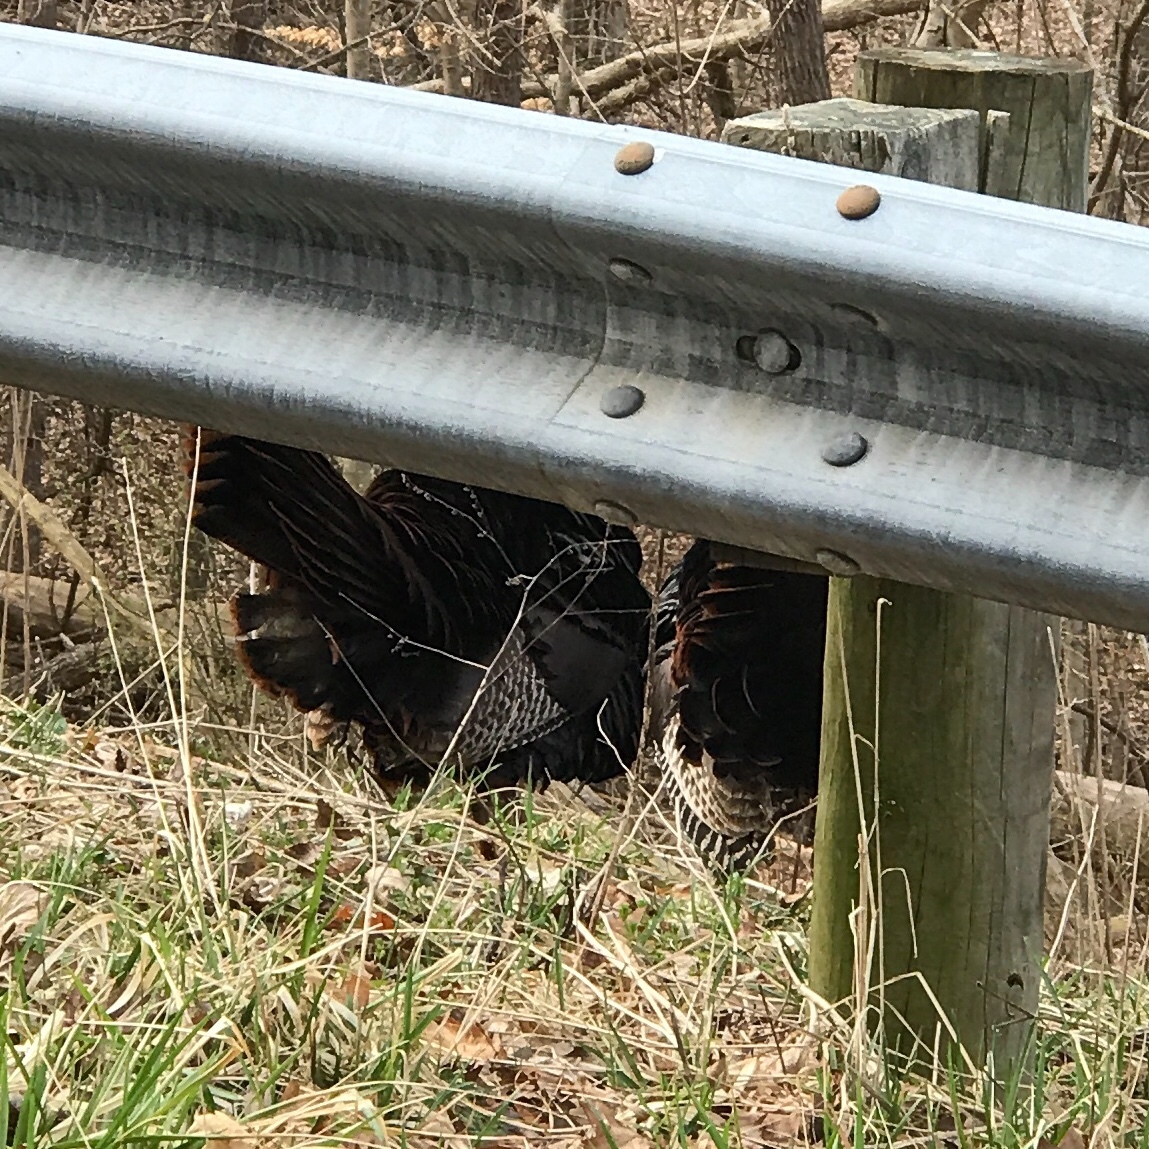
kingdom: Animalia
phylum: Chordata
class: Aves
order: Galliformes
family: Phasianidae
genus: Meleagris
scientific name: Meleagris gallopavo
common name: Wild turkey
